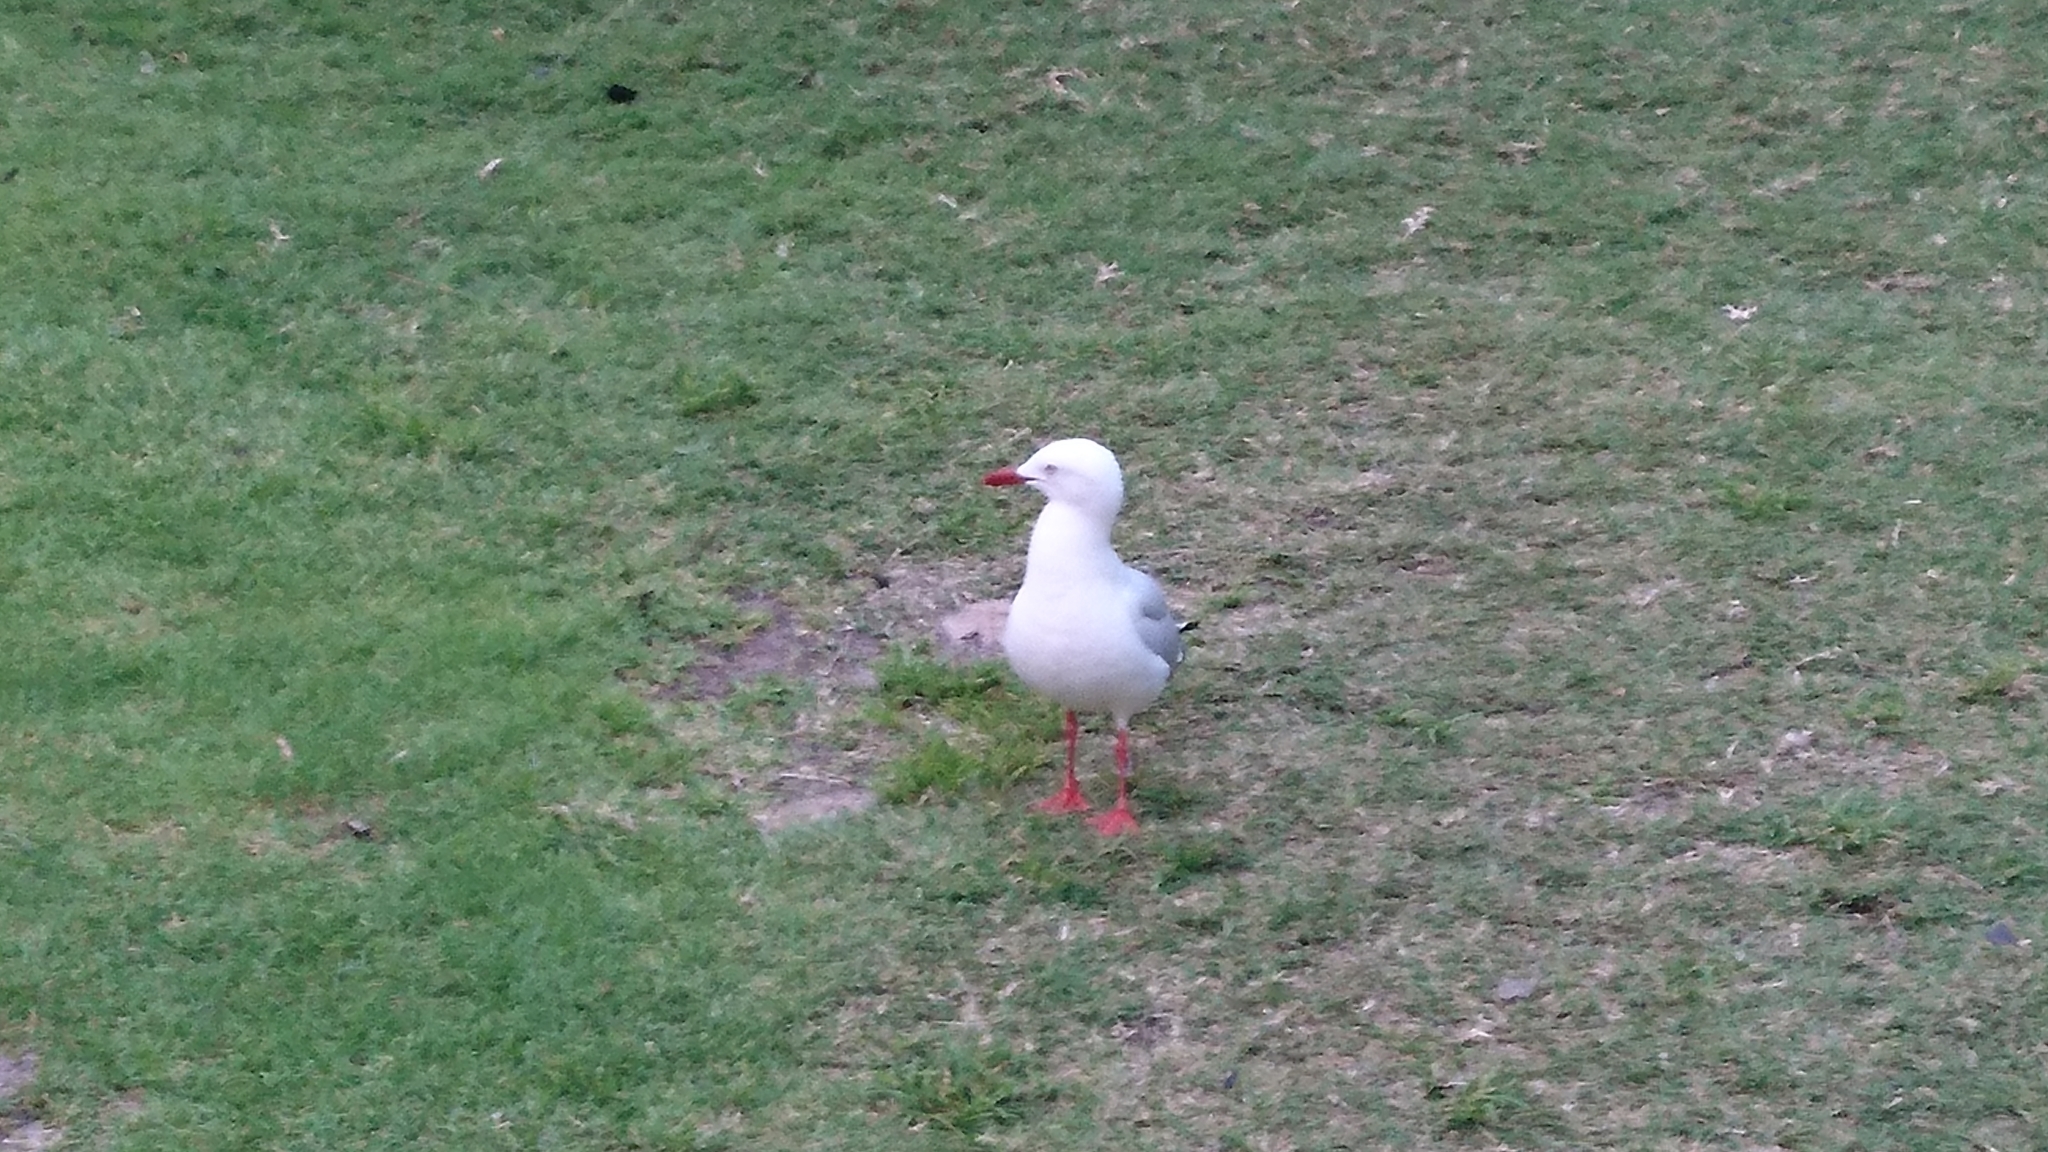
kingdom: Animalia
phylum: Chordata
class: Aves
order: Charadriiformes
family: Laridae
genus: Chroicocephalus
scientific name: Chroicocephalus novaehollandiae
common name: Silver gull
